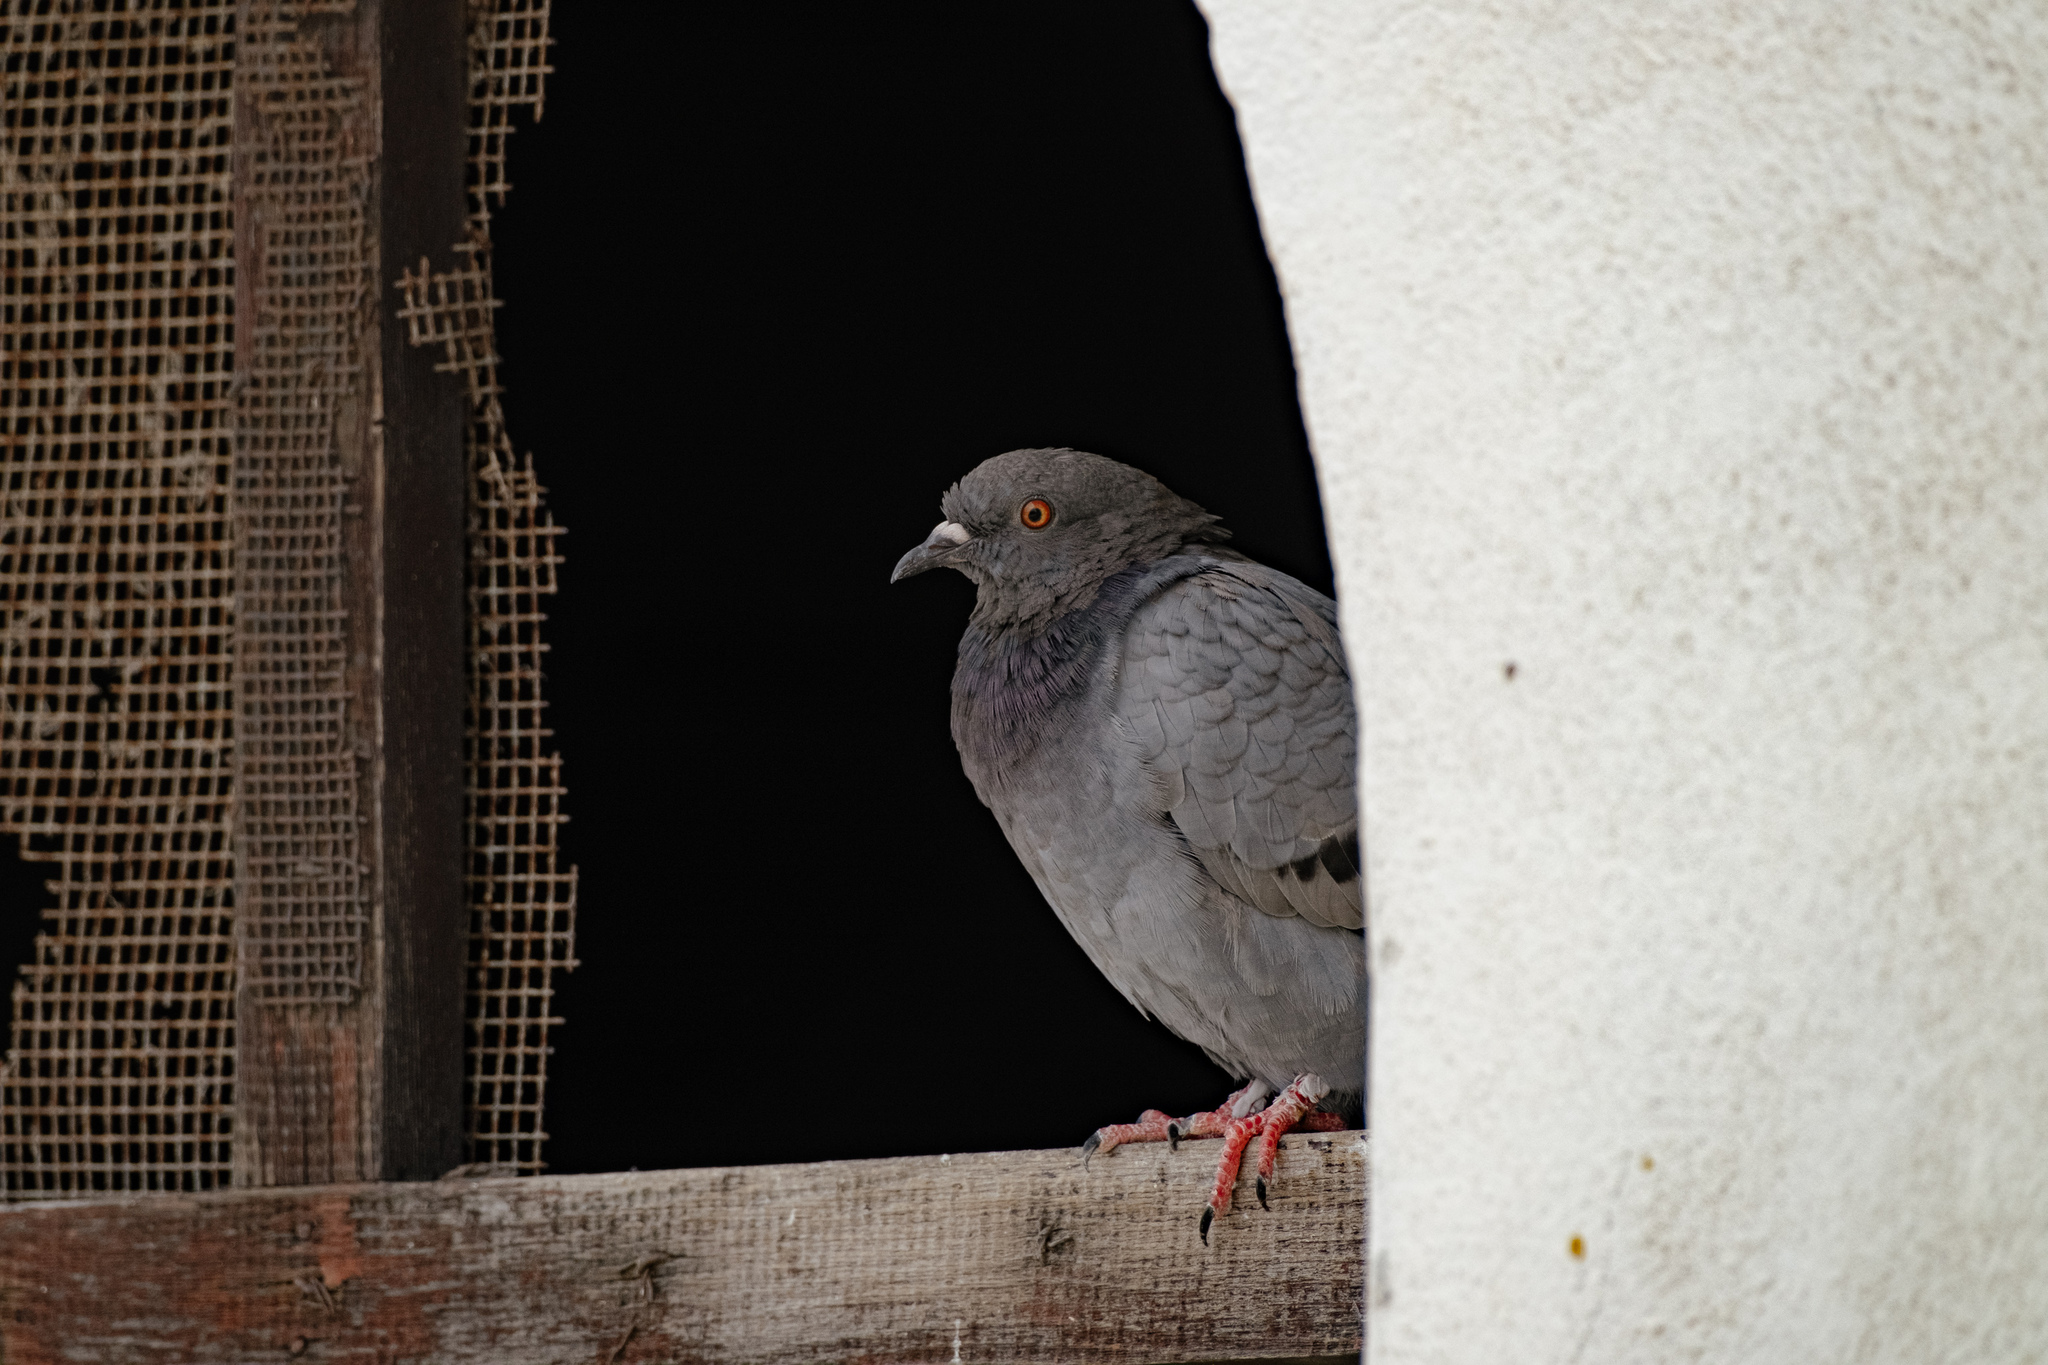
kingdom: Animalia
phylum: Chordata
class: Aves
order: Columbiformes
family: Columbidae
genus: Columba
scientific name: Columba livia
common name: Rock pigeon
